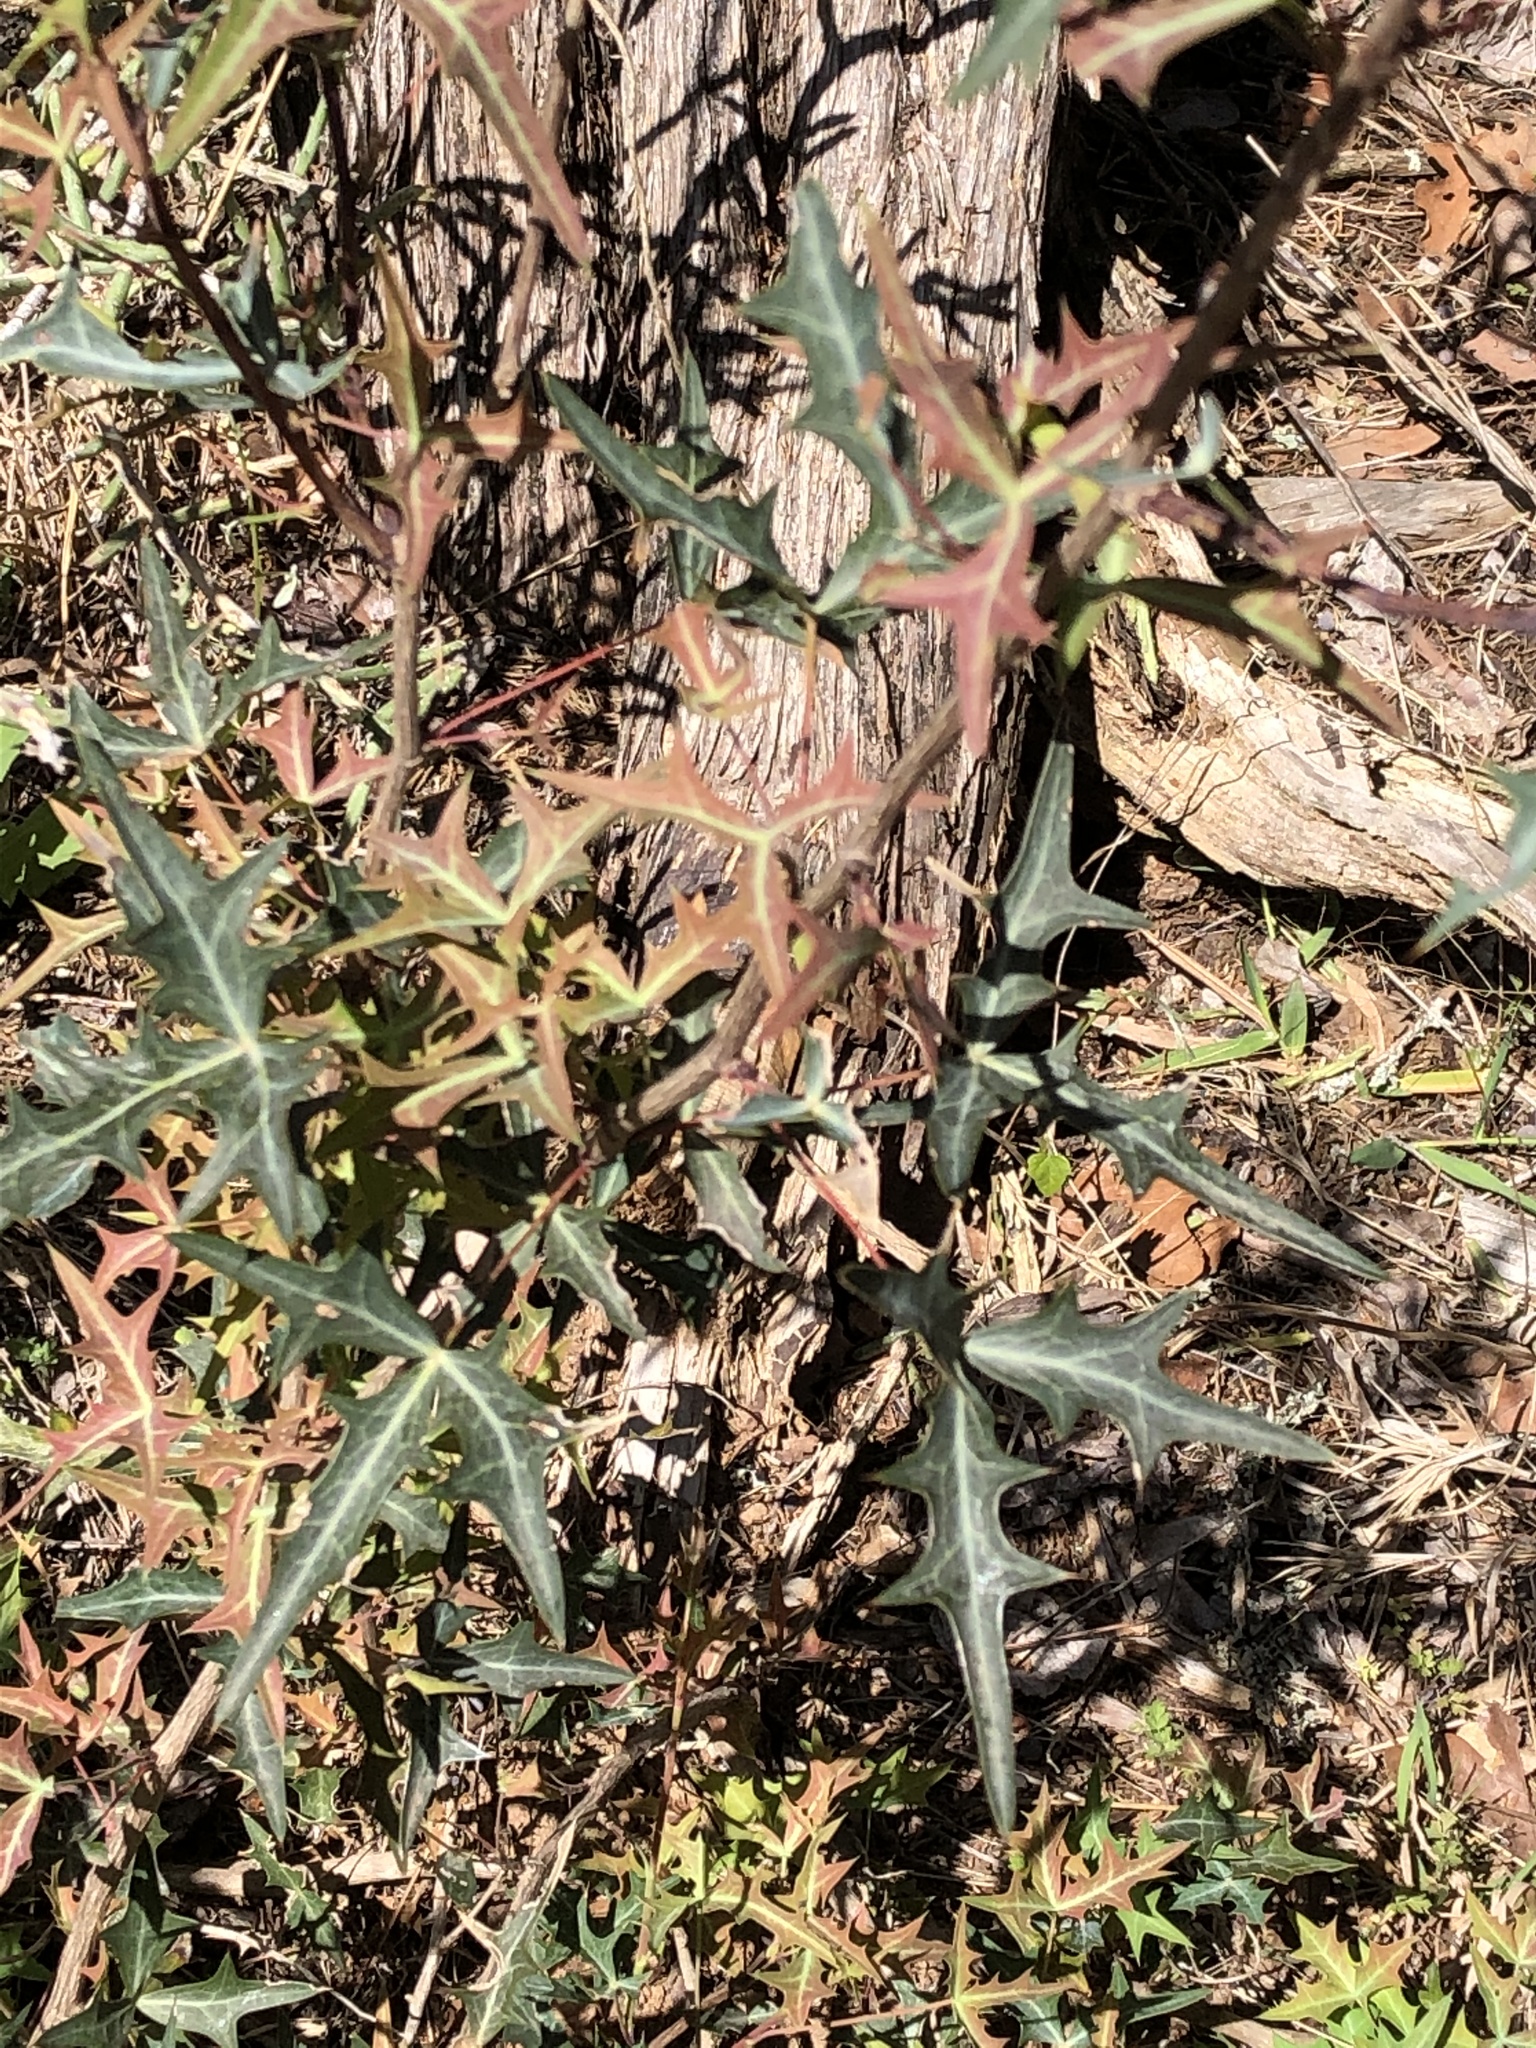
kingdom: Plantae
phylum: Tracheophyta
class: Magnoliopsida
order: Ranunculales
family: Berberidaceae
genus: Alloberberis
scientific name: Alloberberis trifoliolata
